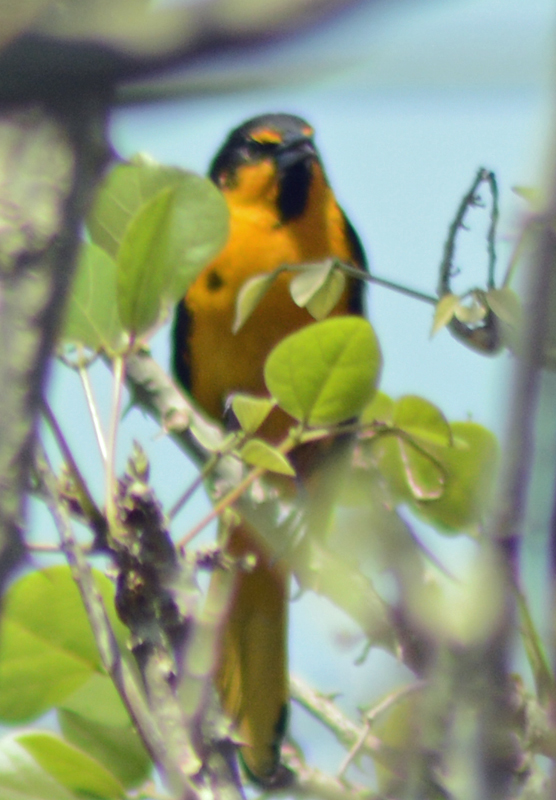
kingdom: Animalia
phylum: Chordata
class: Aves
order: Passeriformes
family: Icteridae
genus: Icterus
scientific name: Icterus abeillei
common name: Black-backed oriole
